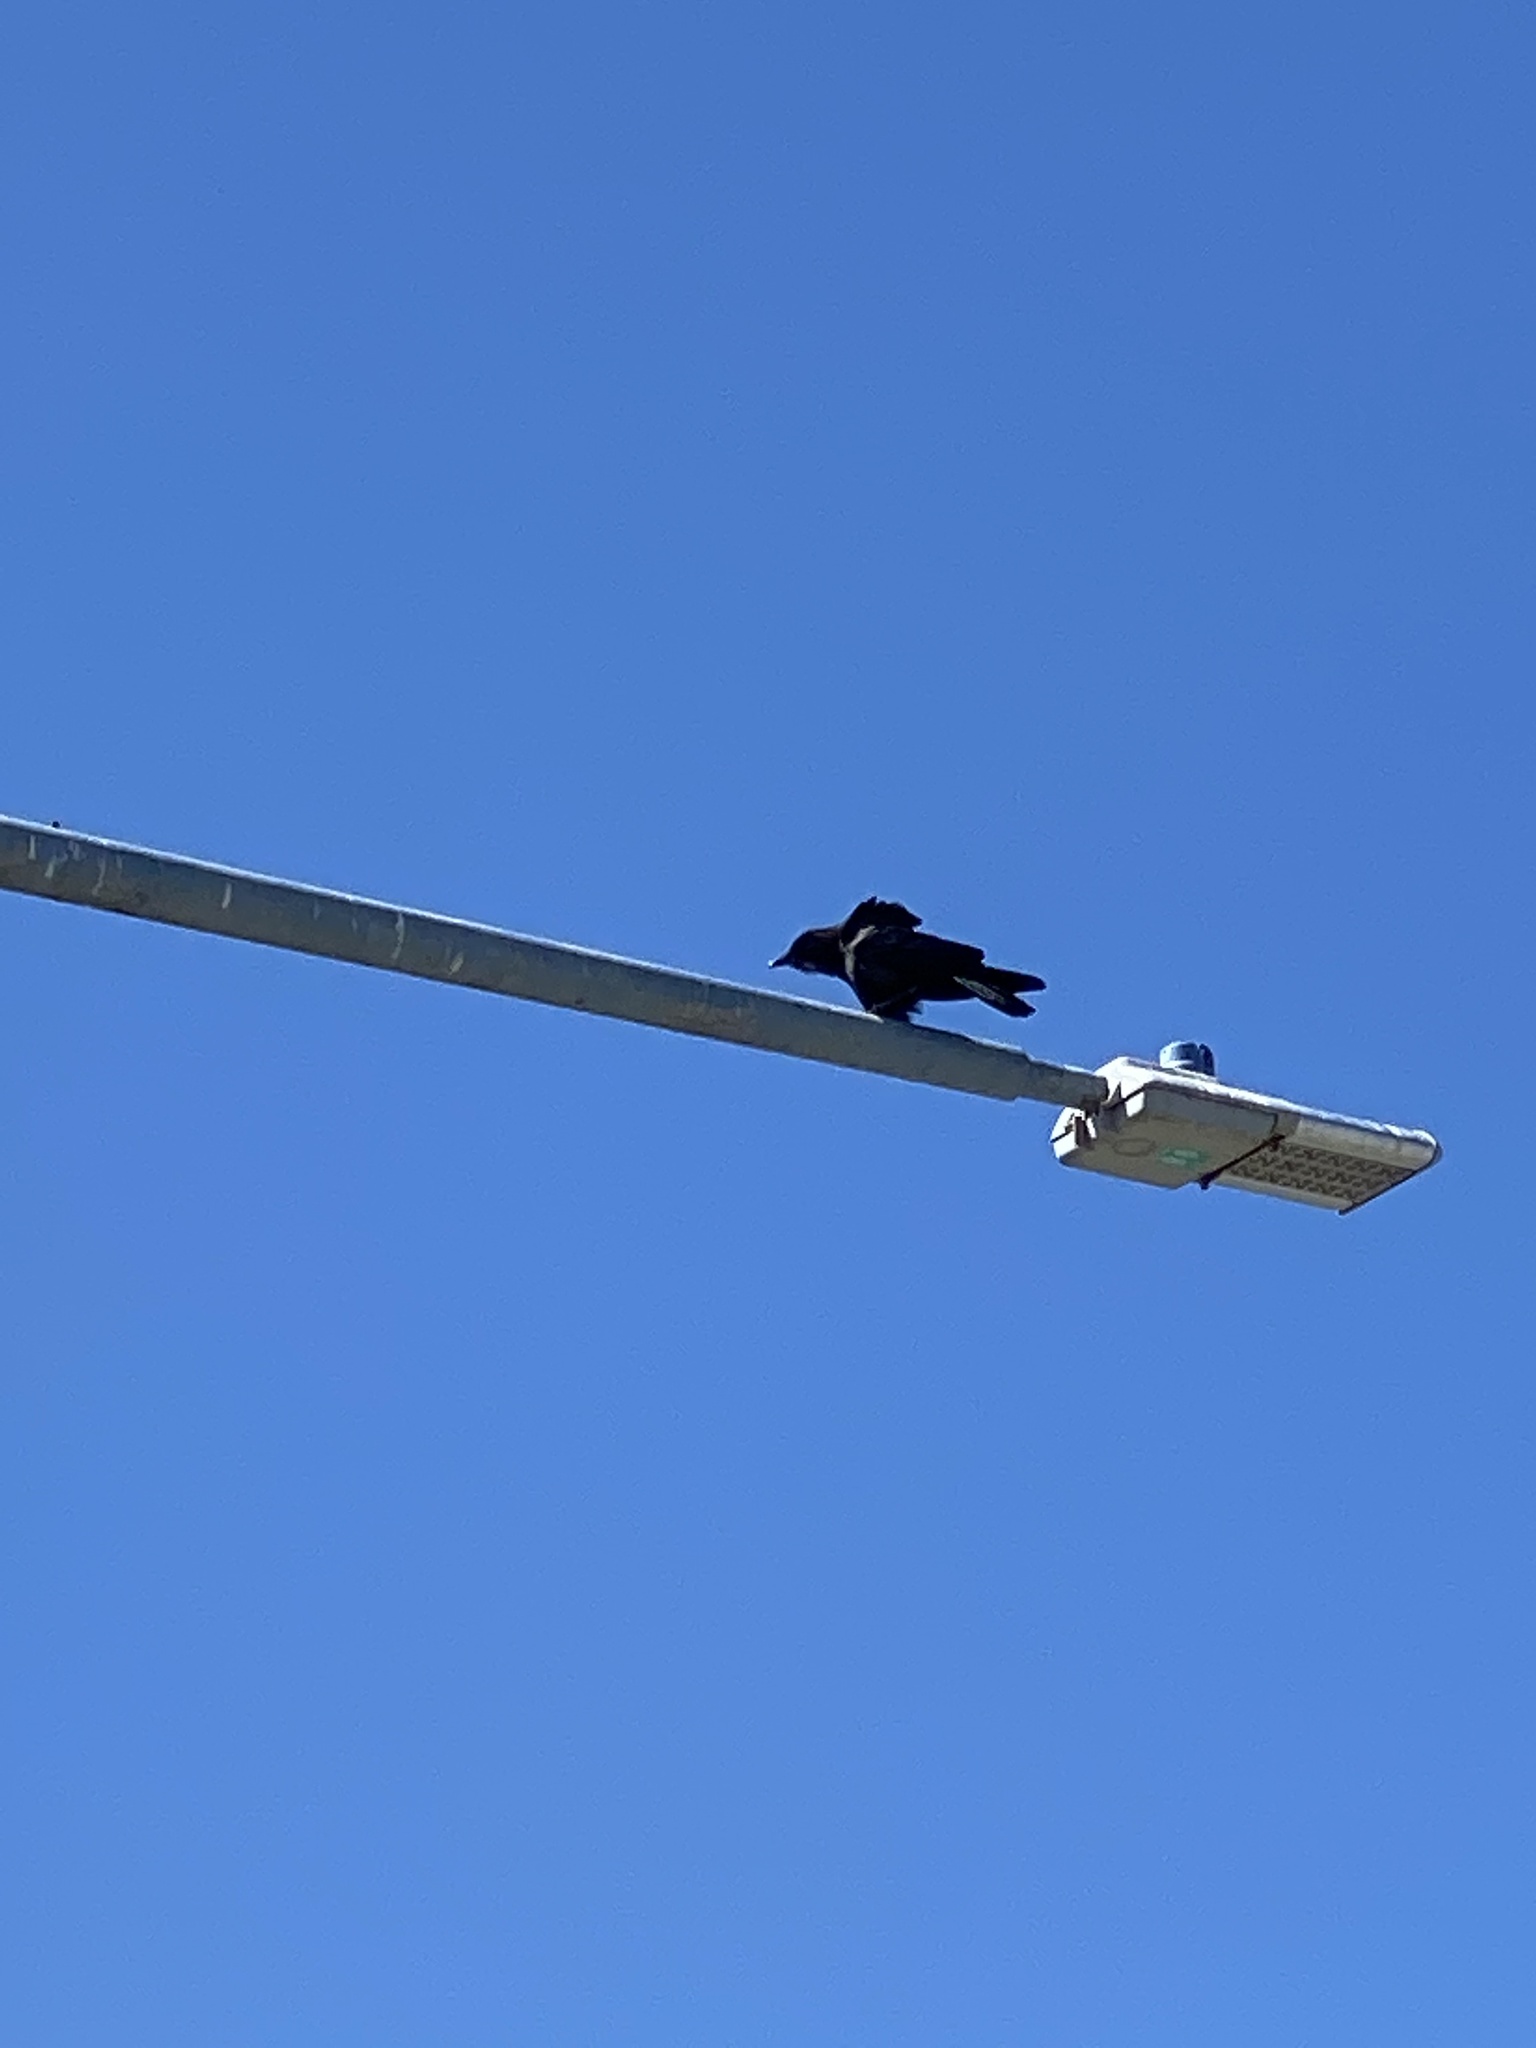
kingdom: Animalia
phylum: Chordata
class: Aves
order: Passeriformes
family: Corvidae
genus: Corvus
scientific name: Corvus brachyrhynchos
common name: American crow
